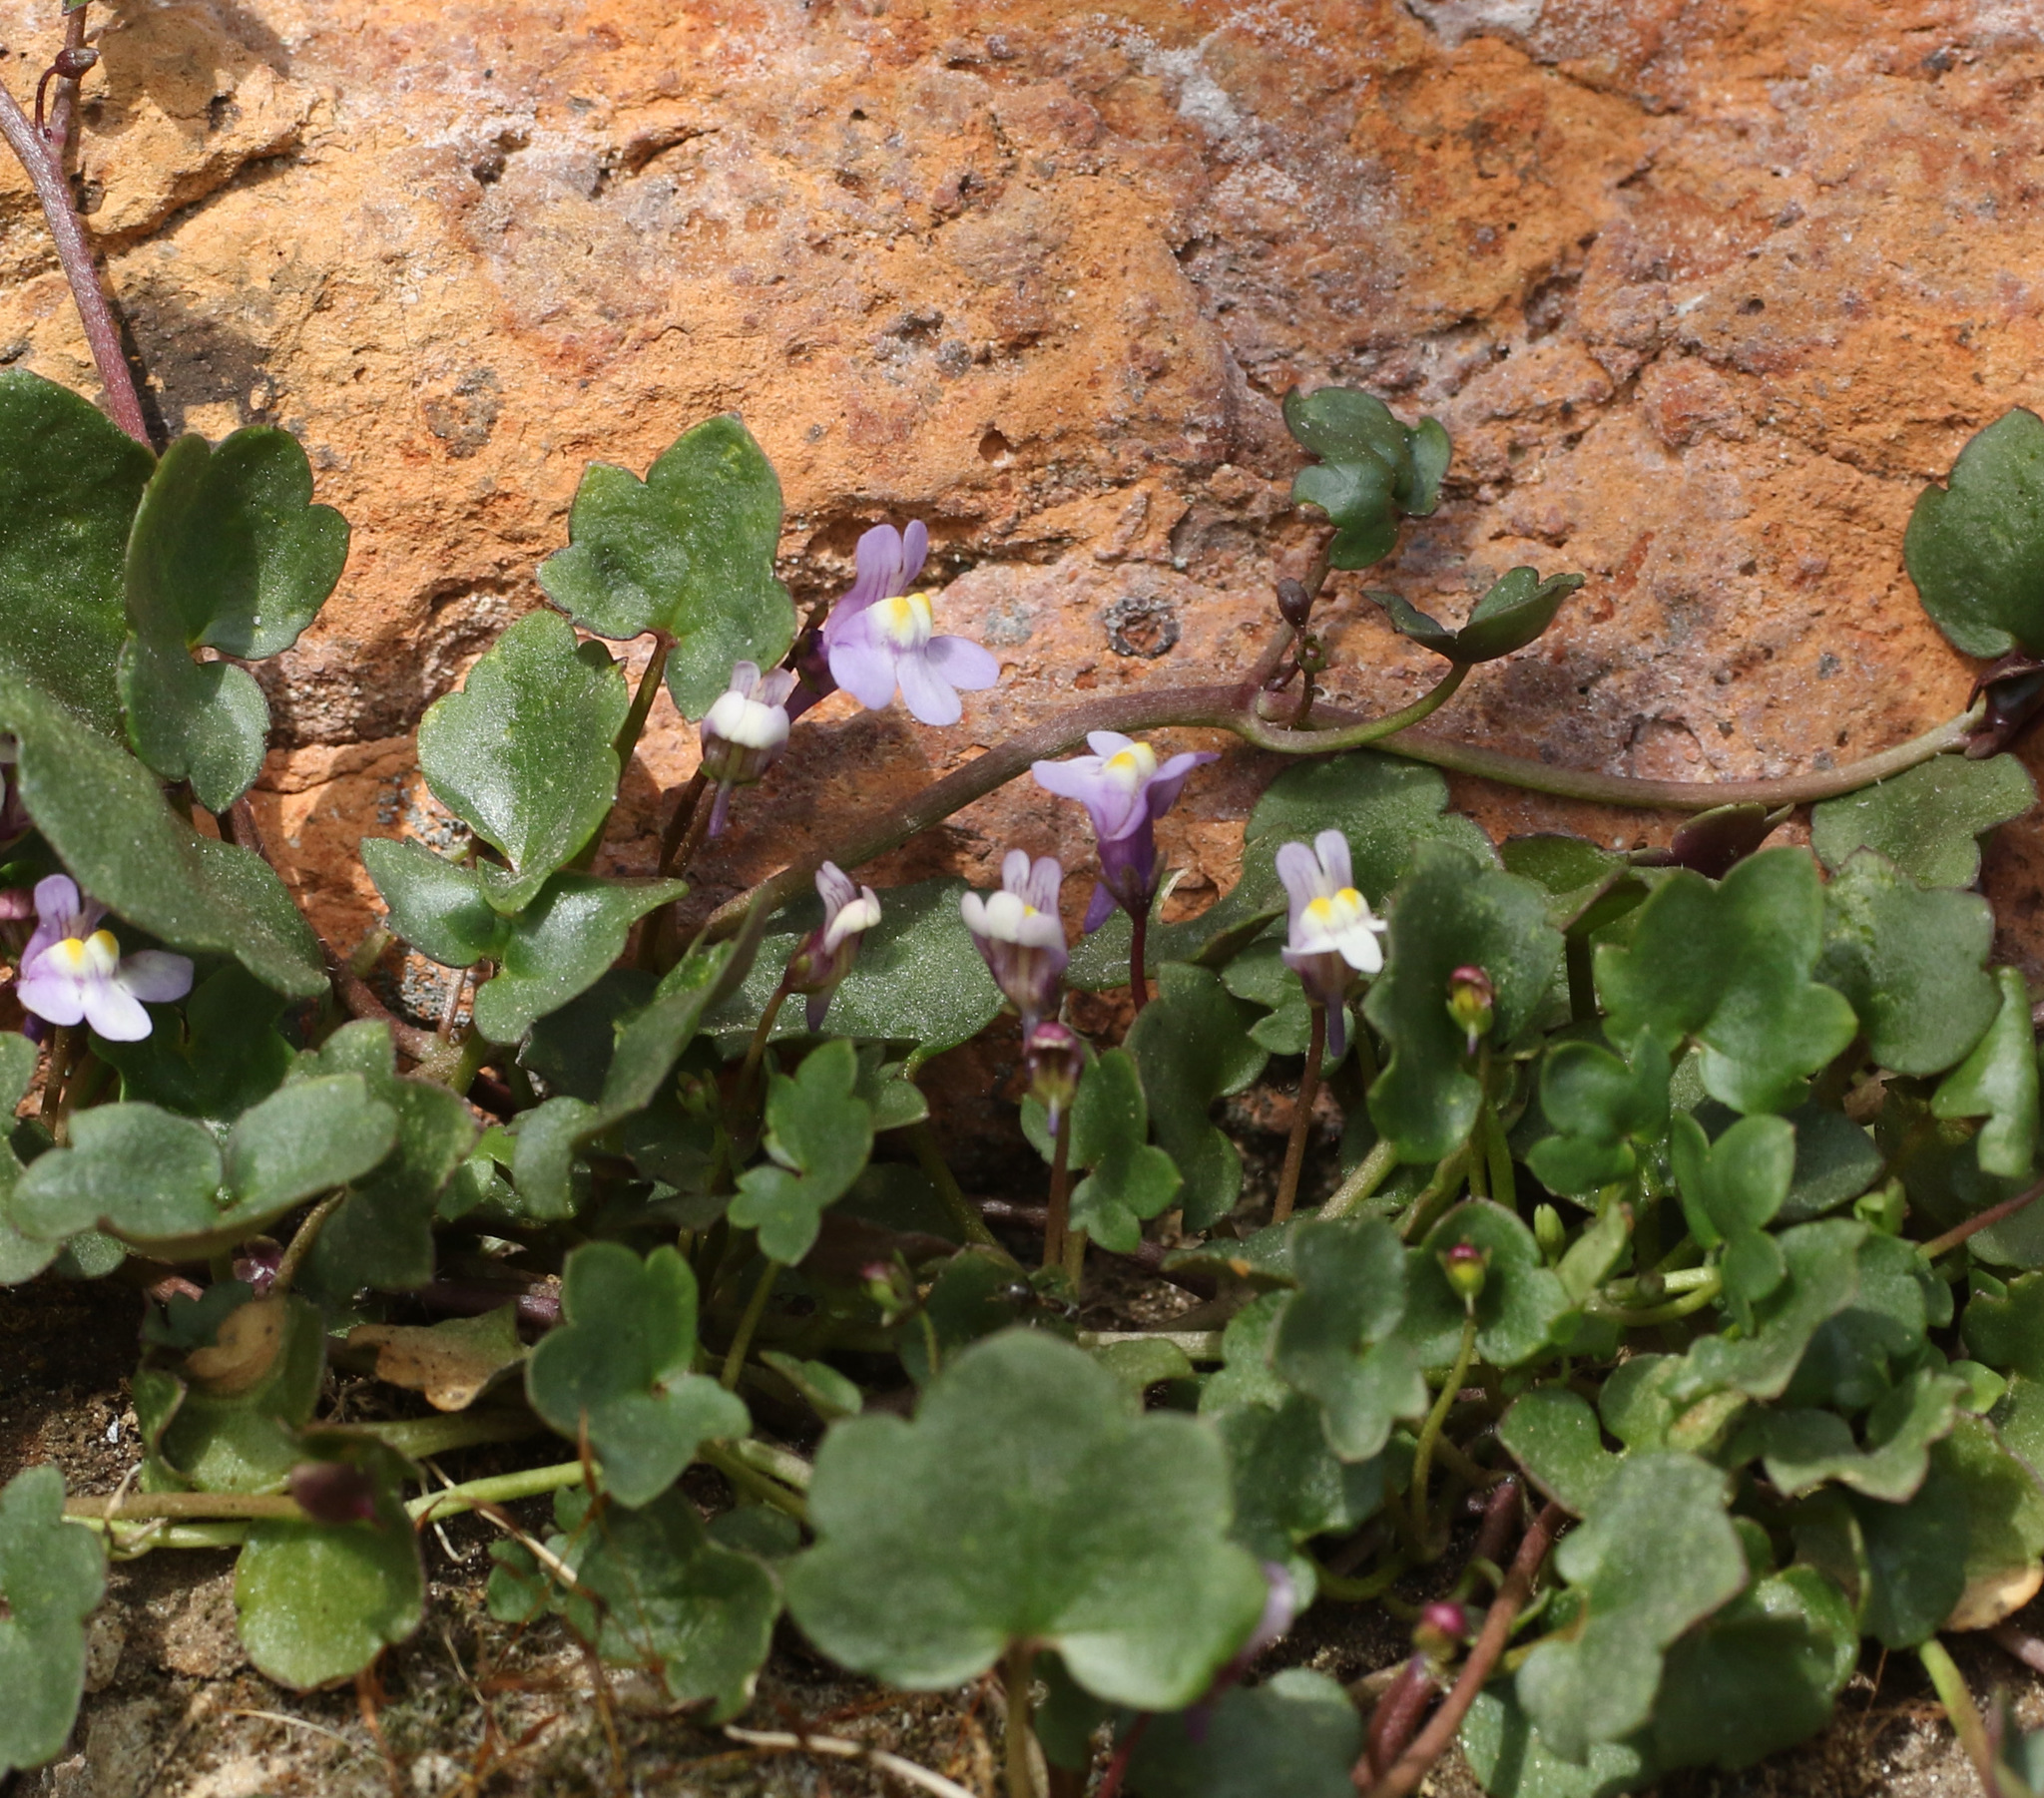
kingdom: Plantae
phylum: Tracheophyta
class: Magnoliopsida
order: Lamiales
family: Plantaginaceae
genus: Cymbalaria
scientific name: Cymbalaria muralis
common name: Ivy-leaved toadflax
